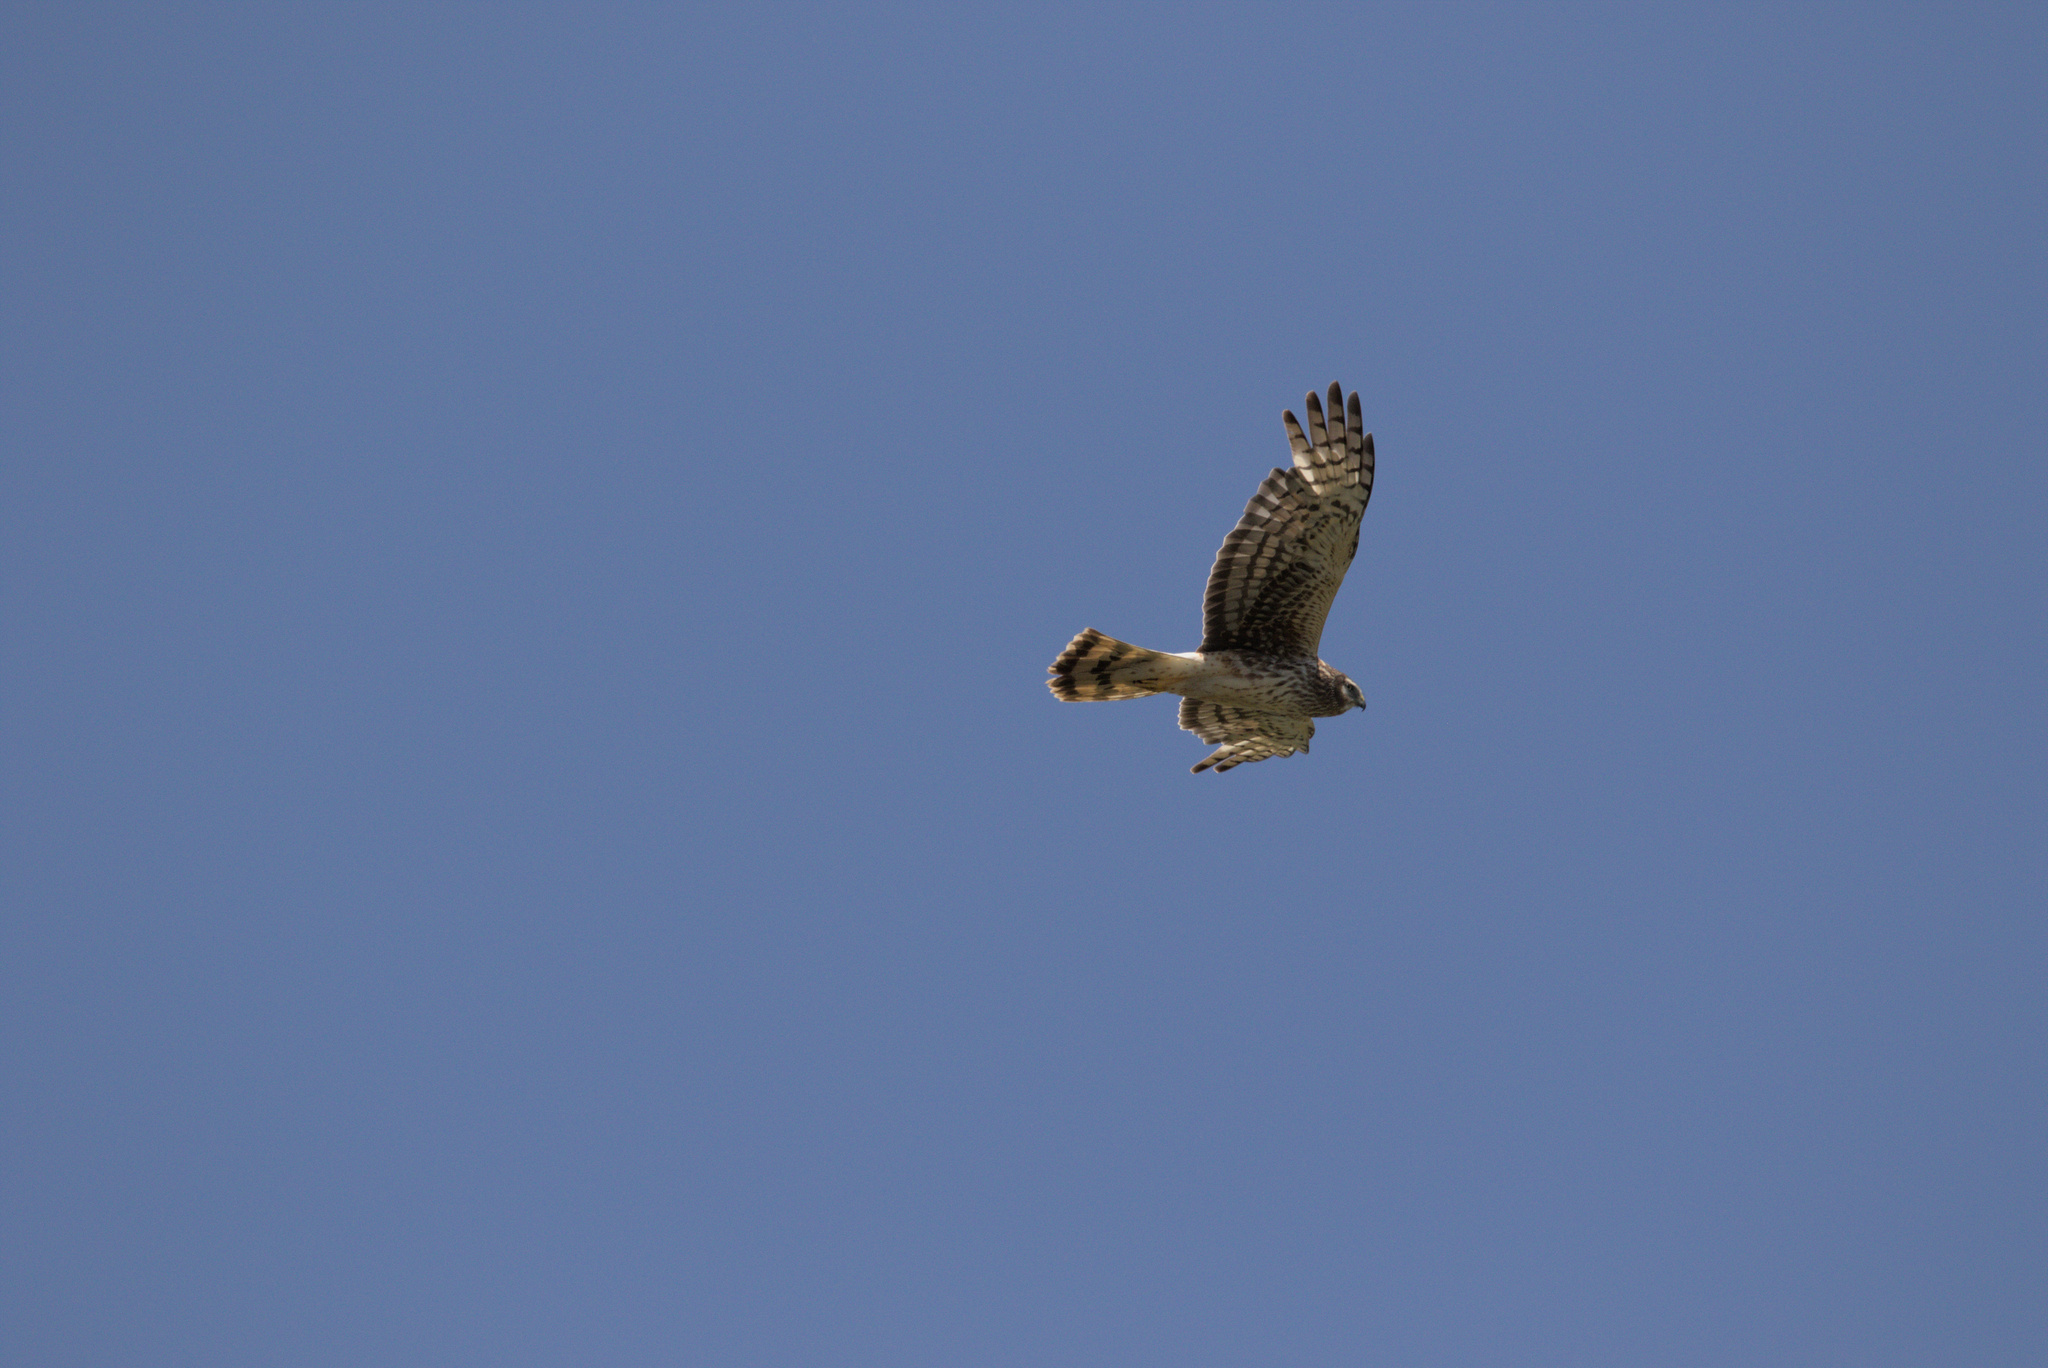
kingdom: Animalia
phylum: Chordata
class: Aves
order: Accipitriformes
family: Accipitridae
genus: Circus
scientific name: Circus cyaneus
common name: Hen harrier
